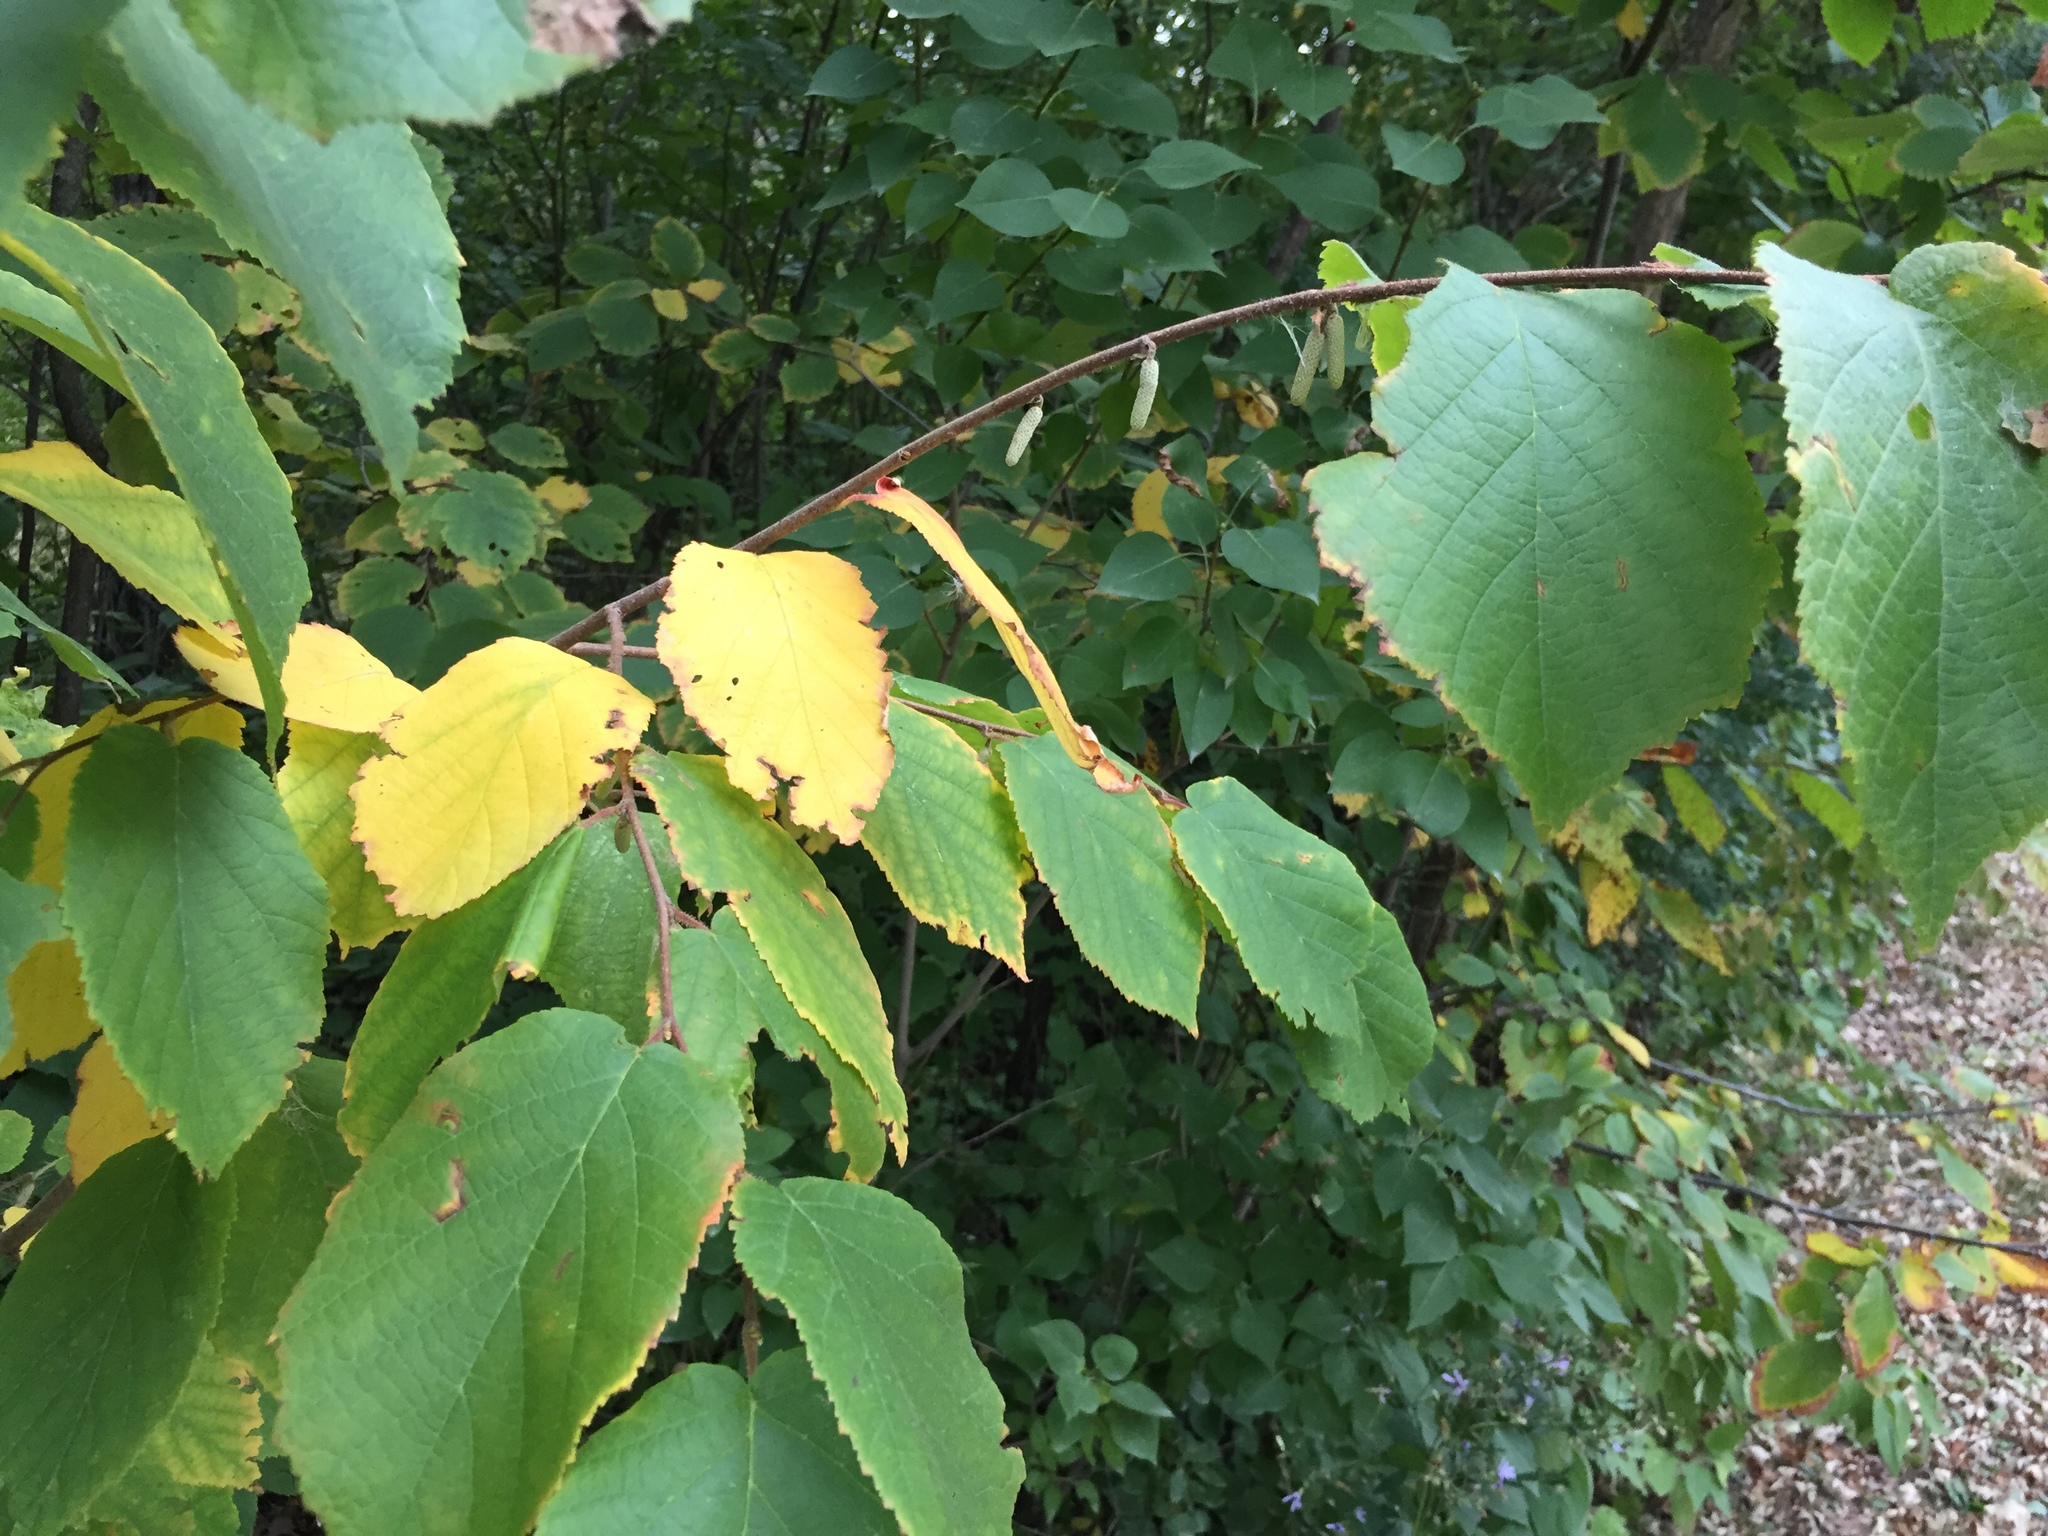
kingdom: Plantae
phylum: Tracheophyta
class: Magnoliopsida
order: Fagales
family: Betulaceae
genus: Corylus
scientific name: Corylus americana
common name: American hazel
